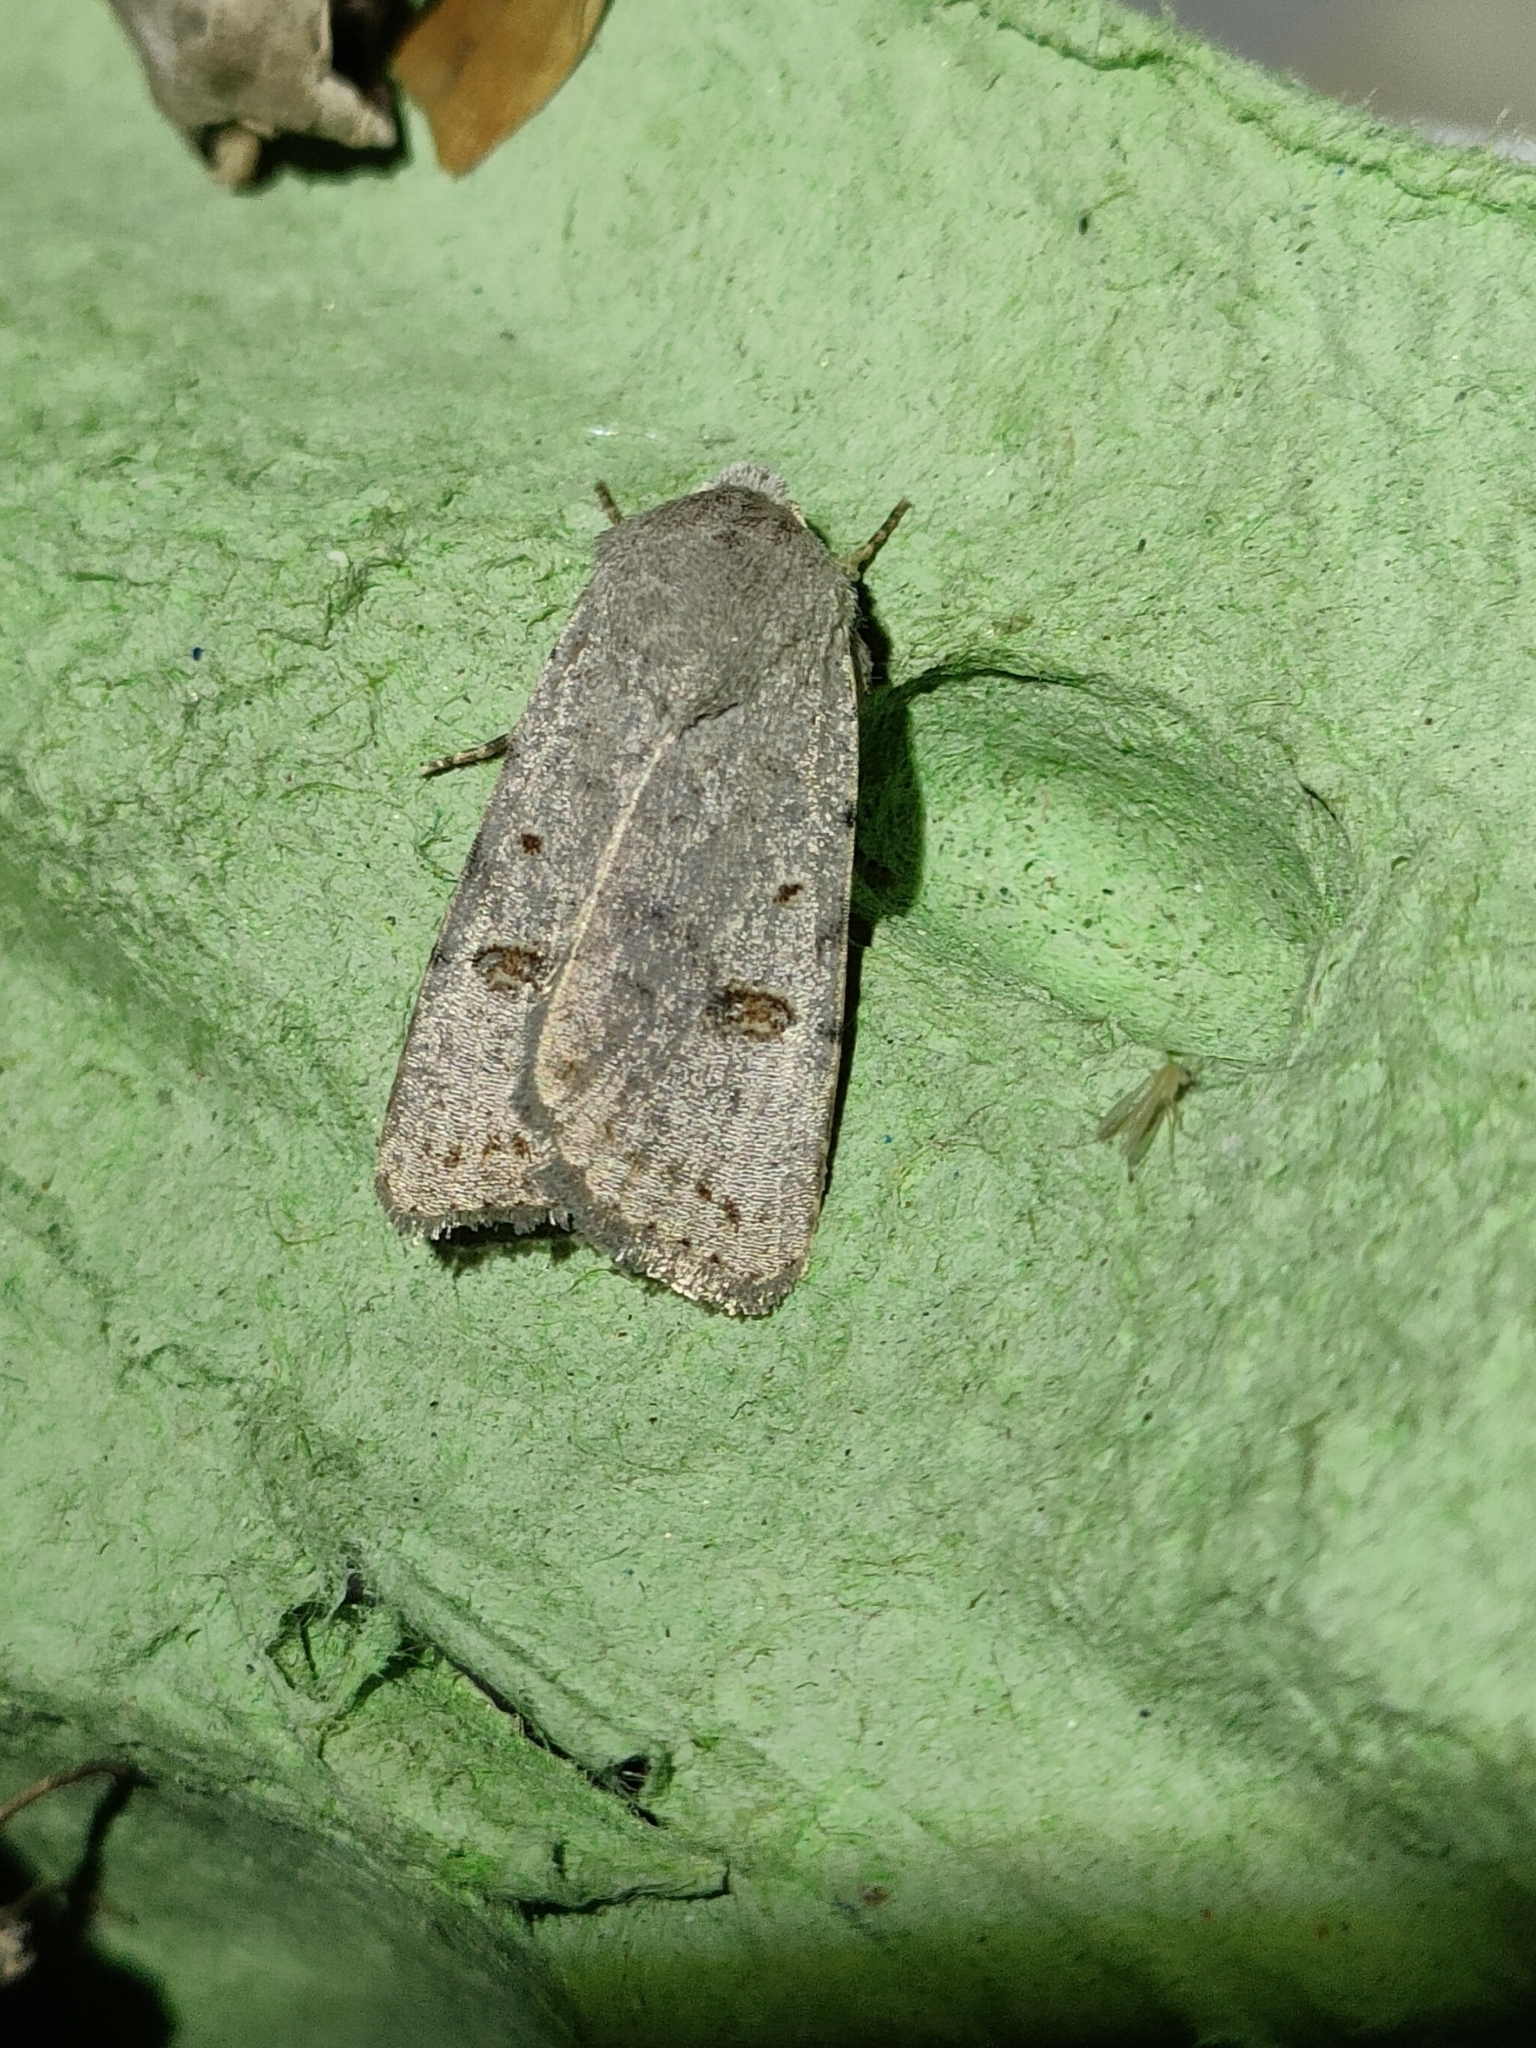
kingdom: Animalia
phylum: Arthropoda
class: Insecta
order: Lepidoptera
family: Noctuidae
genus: Caradrina
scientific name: Caradrina proxima
